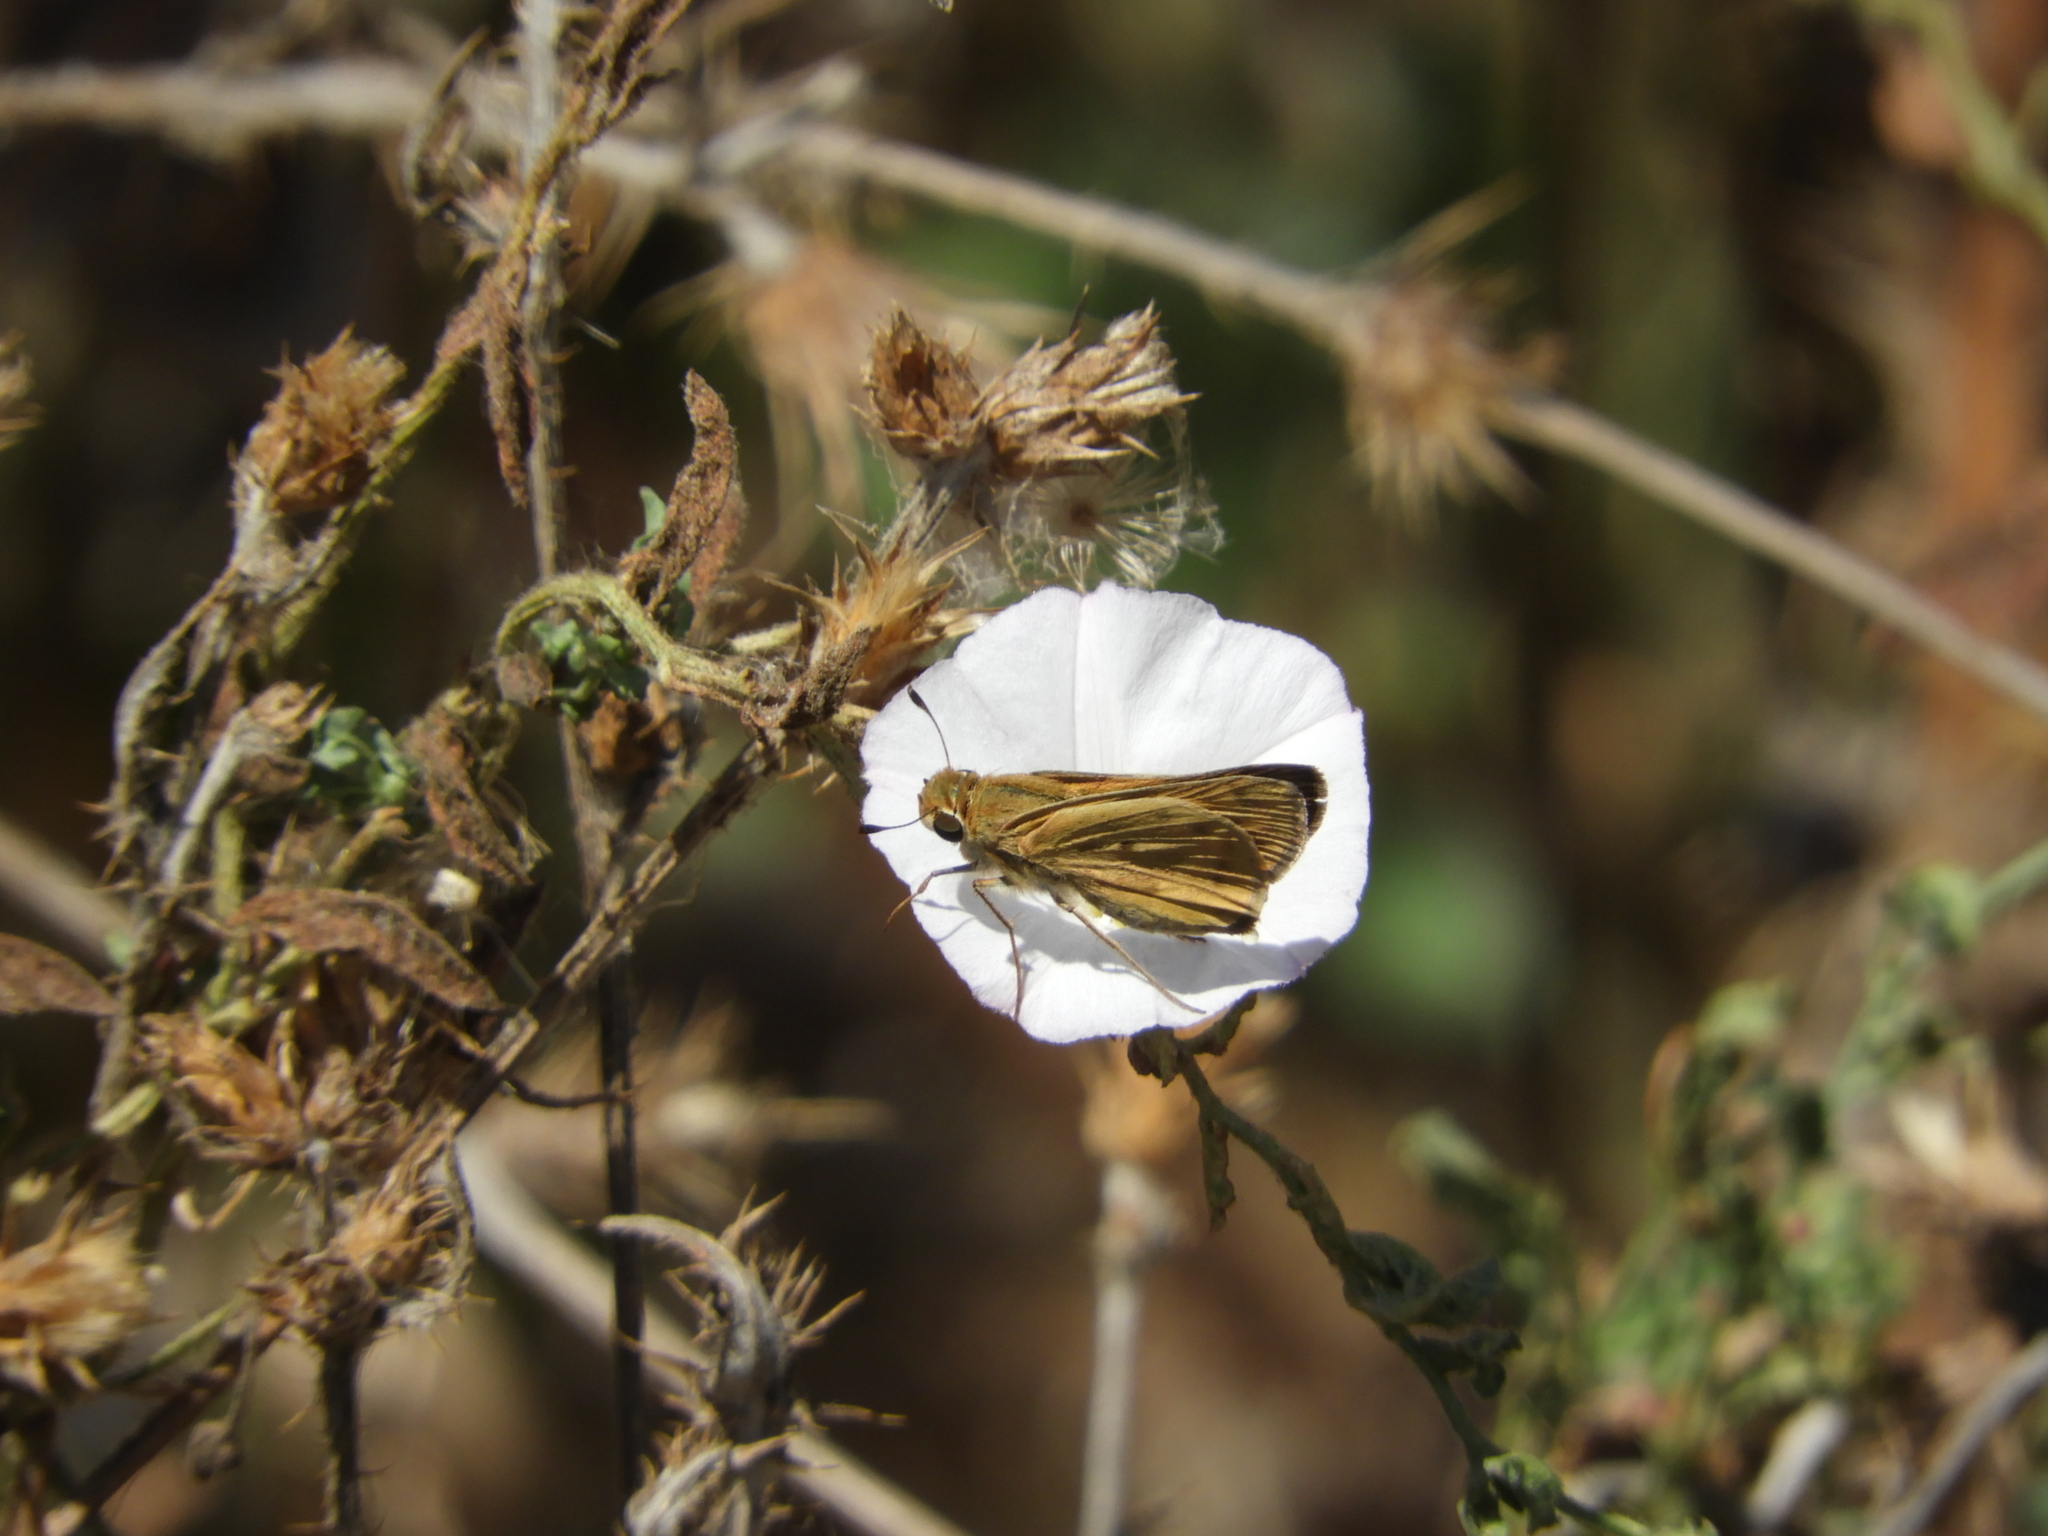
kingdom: Animalia
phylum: Arthropoda
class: Insecta
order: Lepidoptera
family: Hesperiidae
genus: Hylephila
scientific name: Hylephila phyleus
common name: Fiery skipper
